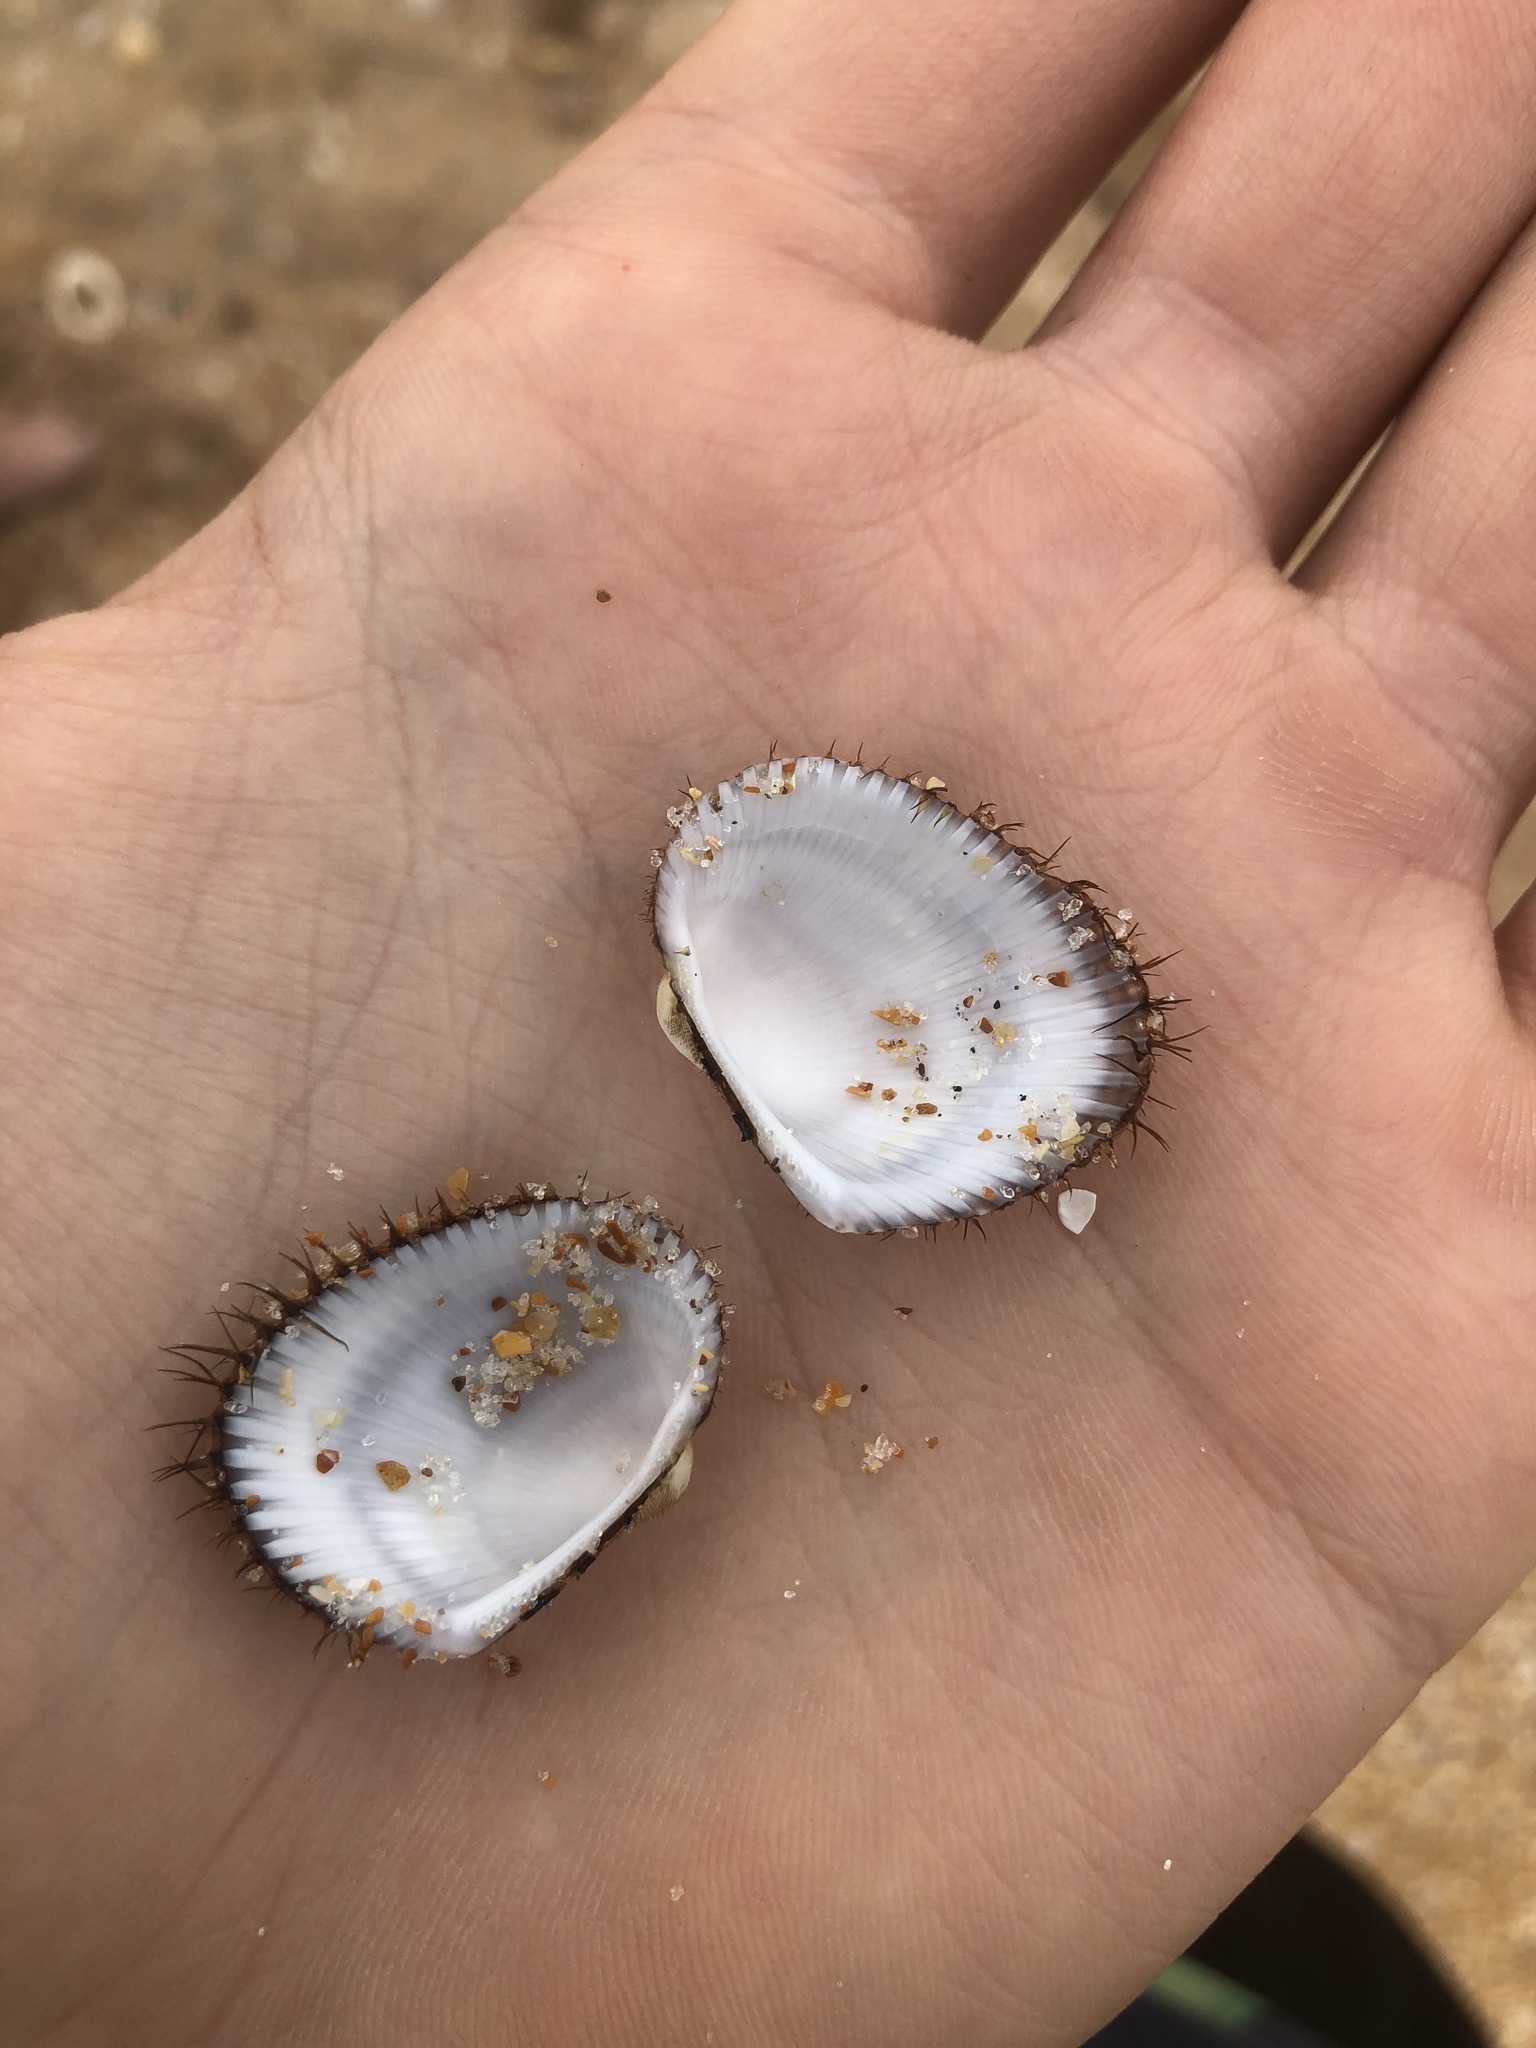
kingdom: Animalia
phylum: Mollusca
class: Bivalvia
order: Arcida
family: Arcidae
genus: Lunarca
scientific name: Lunarca ovalis
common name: Blood ark
